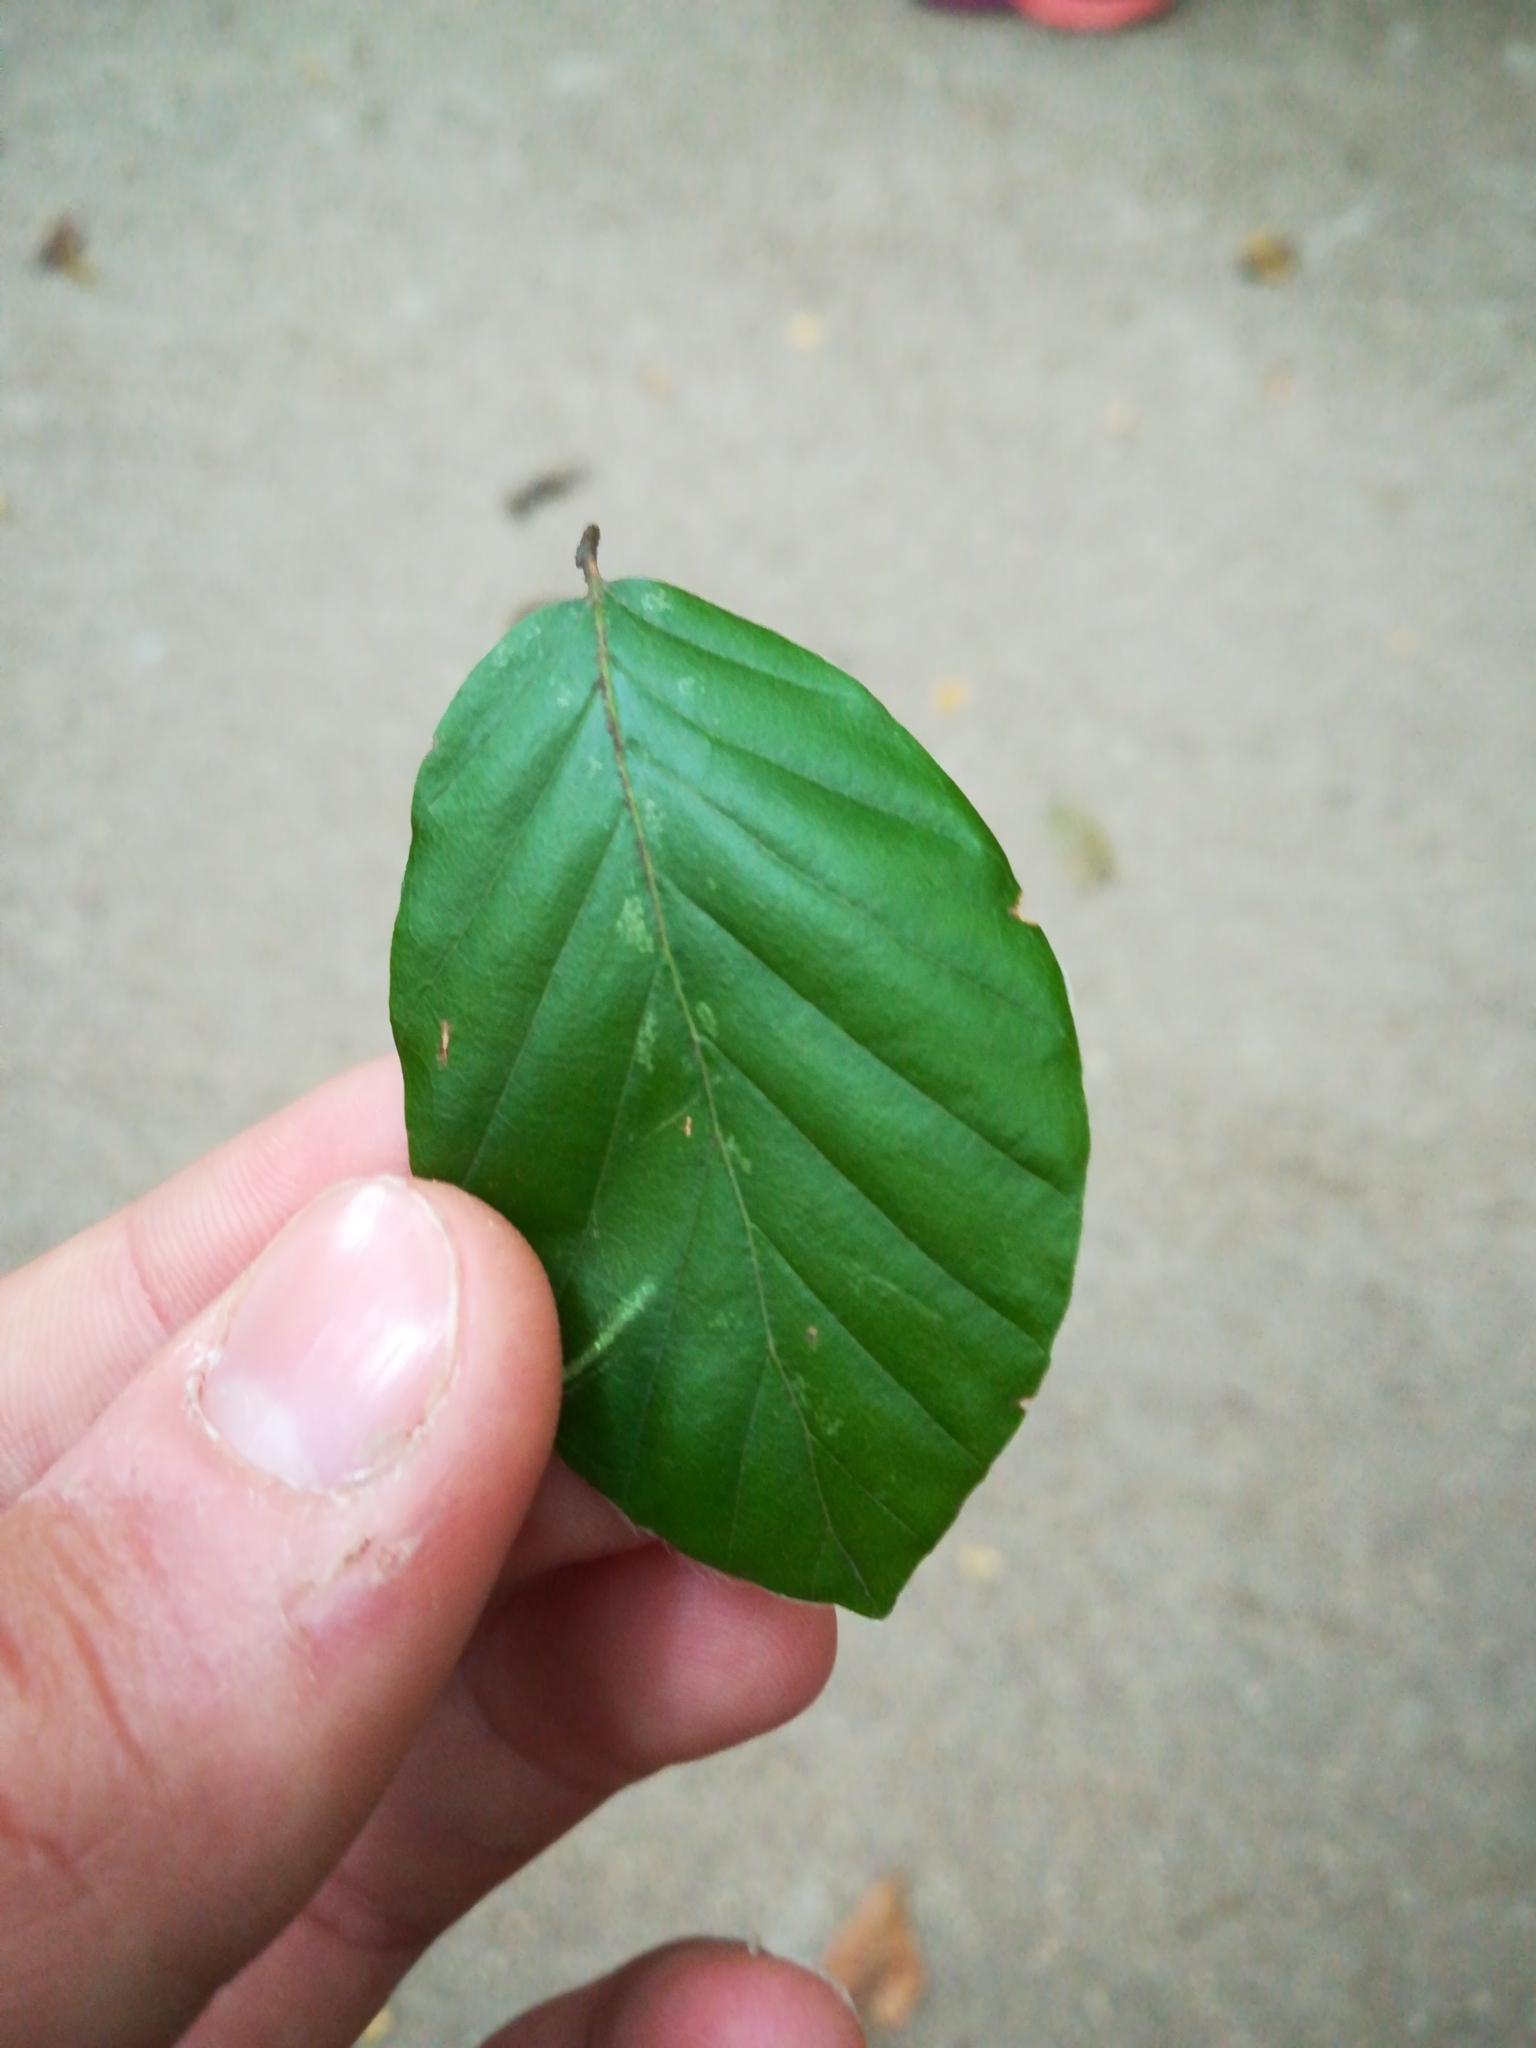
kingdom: Plantae
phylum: Tracheophyta
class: Magnoliopsida
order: Fagales
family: Fagaceae
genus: Fagus
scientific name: Fagus sylvatica
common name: Beech
